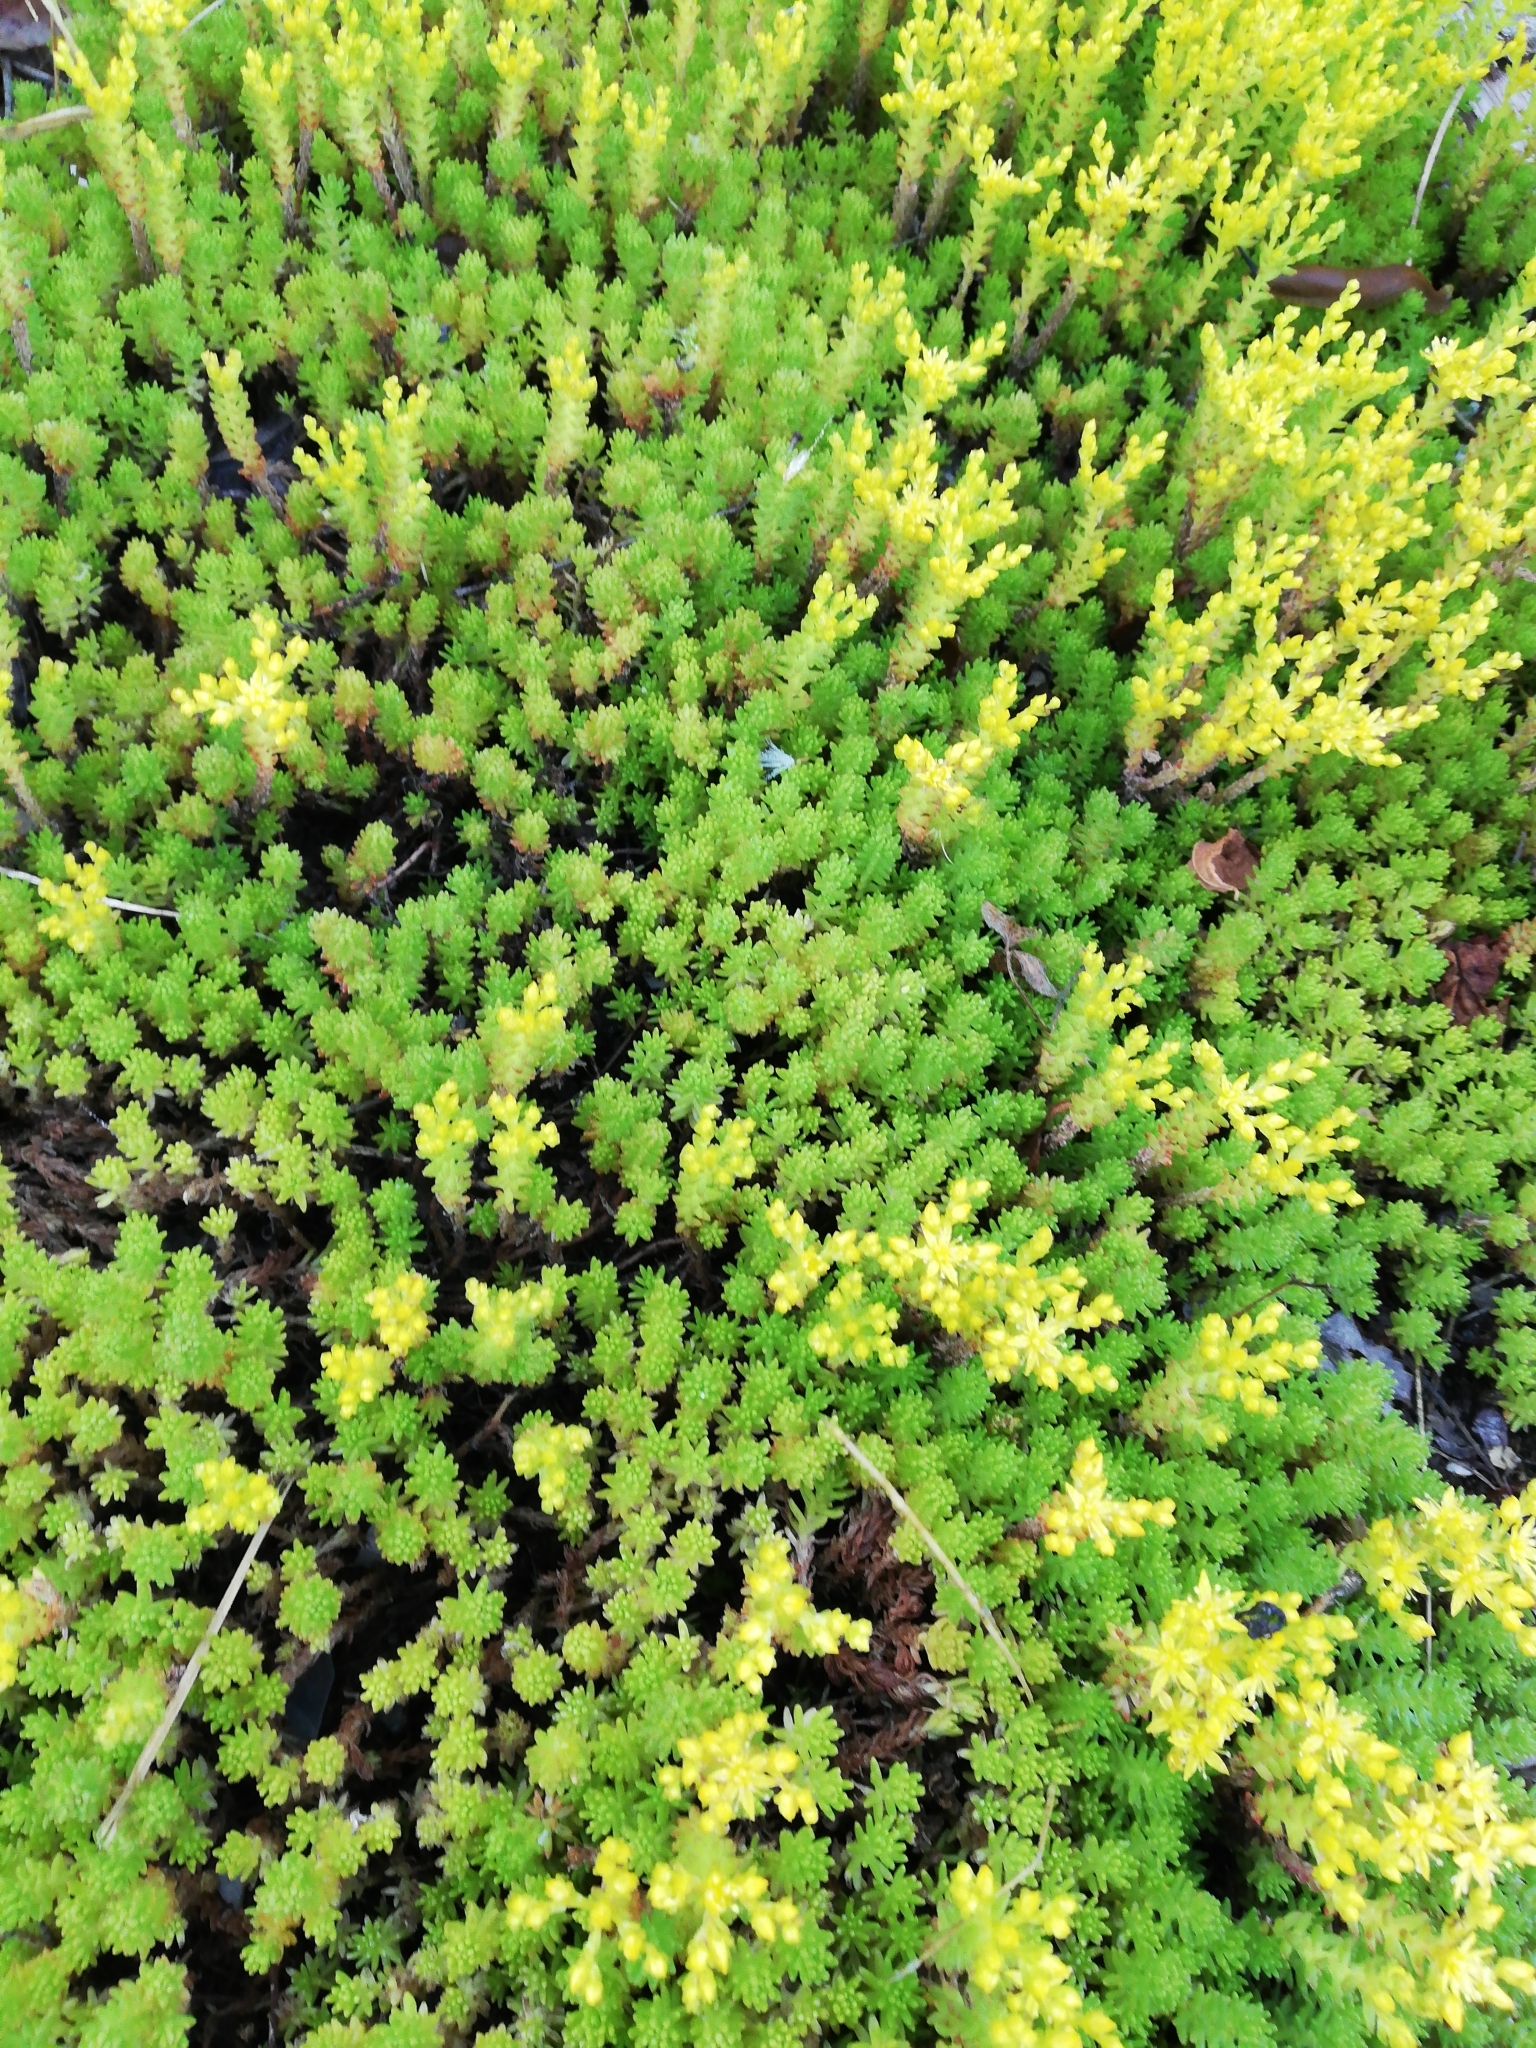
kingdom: Plantae
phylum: Tracheophyta
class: Magnoliopsida
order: Saxifragales
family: Crassulaceae
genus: Sedum
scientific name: Sedum sexangulare
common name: Tasteless stonecrop
